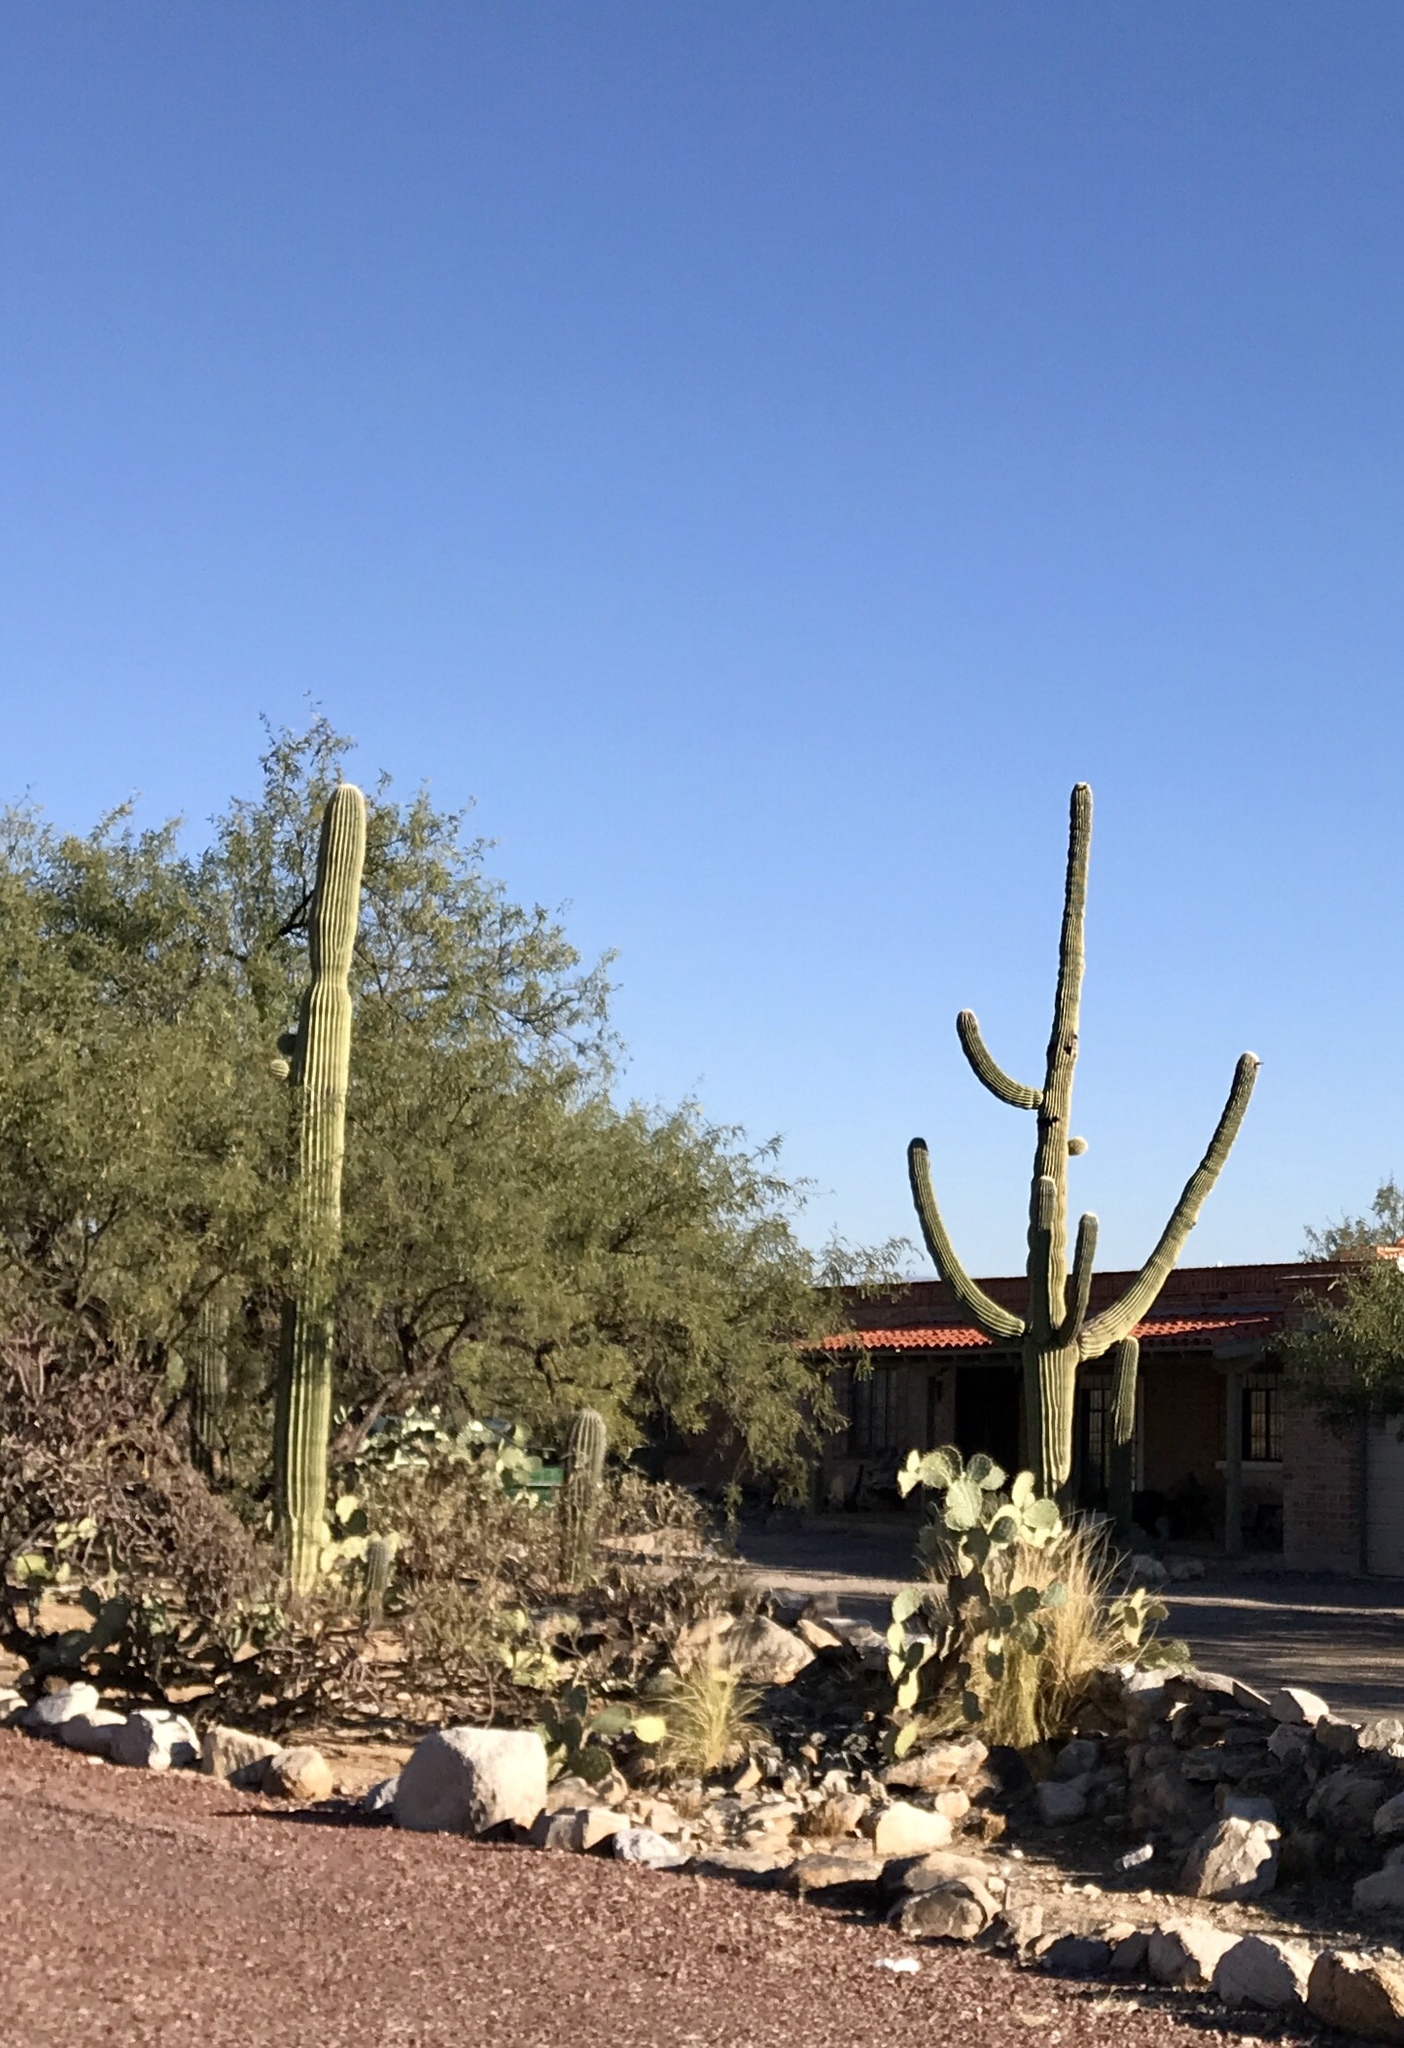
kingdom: Plantae
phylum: Tracheophyta
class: Magnoliopsida
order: Caryophyllales
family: Cactaceae
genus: Carnegiea
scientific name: Carnegiea gigantea
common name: Saguaro
